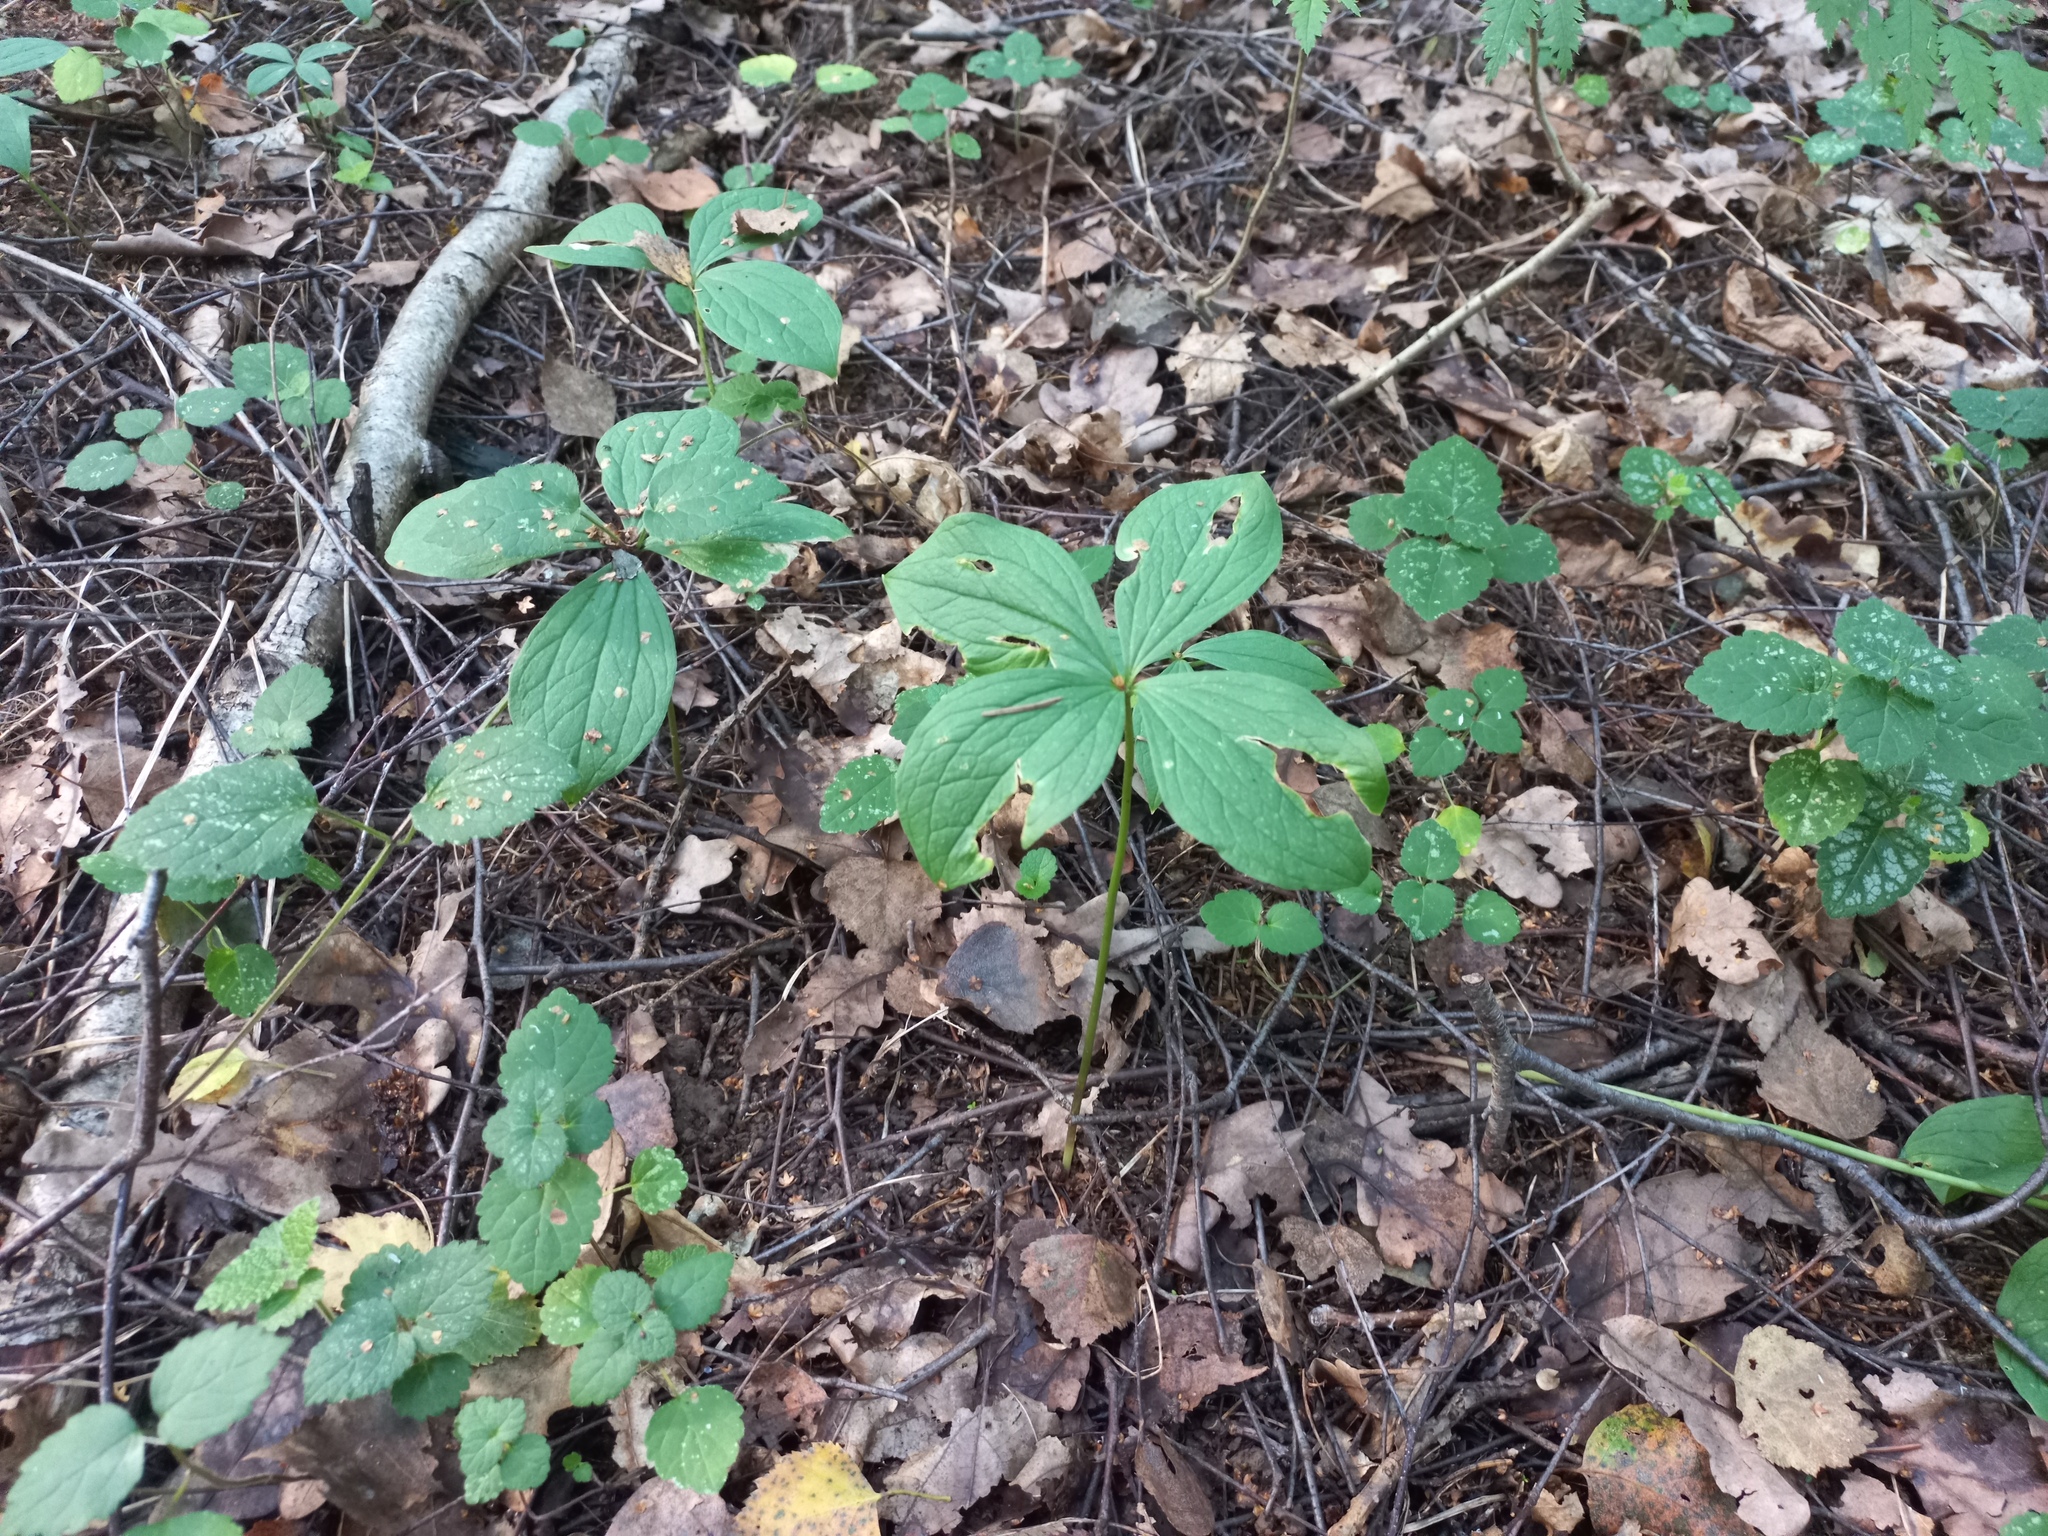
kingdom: Plantae
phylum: Tracheophyta
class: Liliopsida
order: Liliales
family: Melanthiaceae
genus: Paris
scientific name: Paris quadrifolia
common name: Herb-paris
